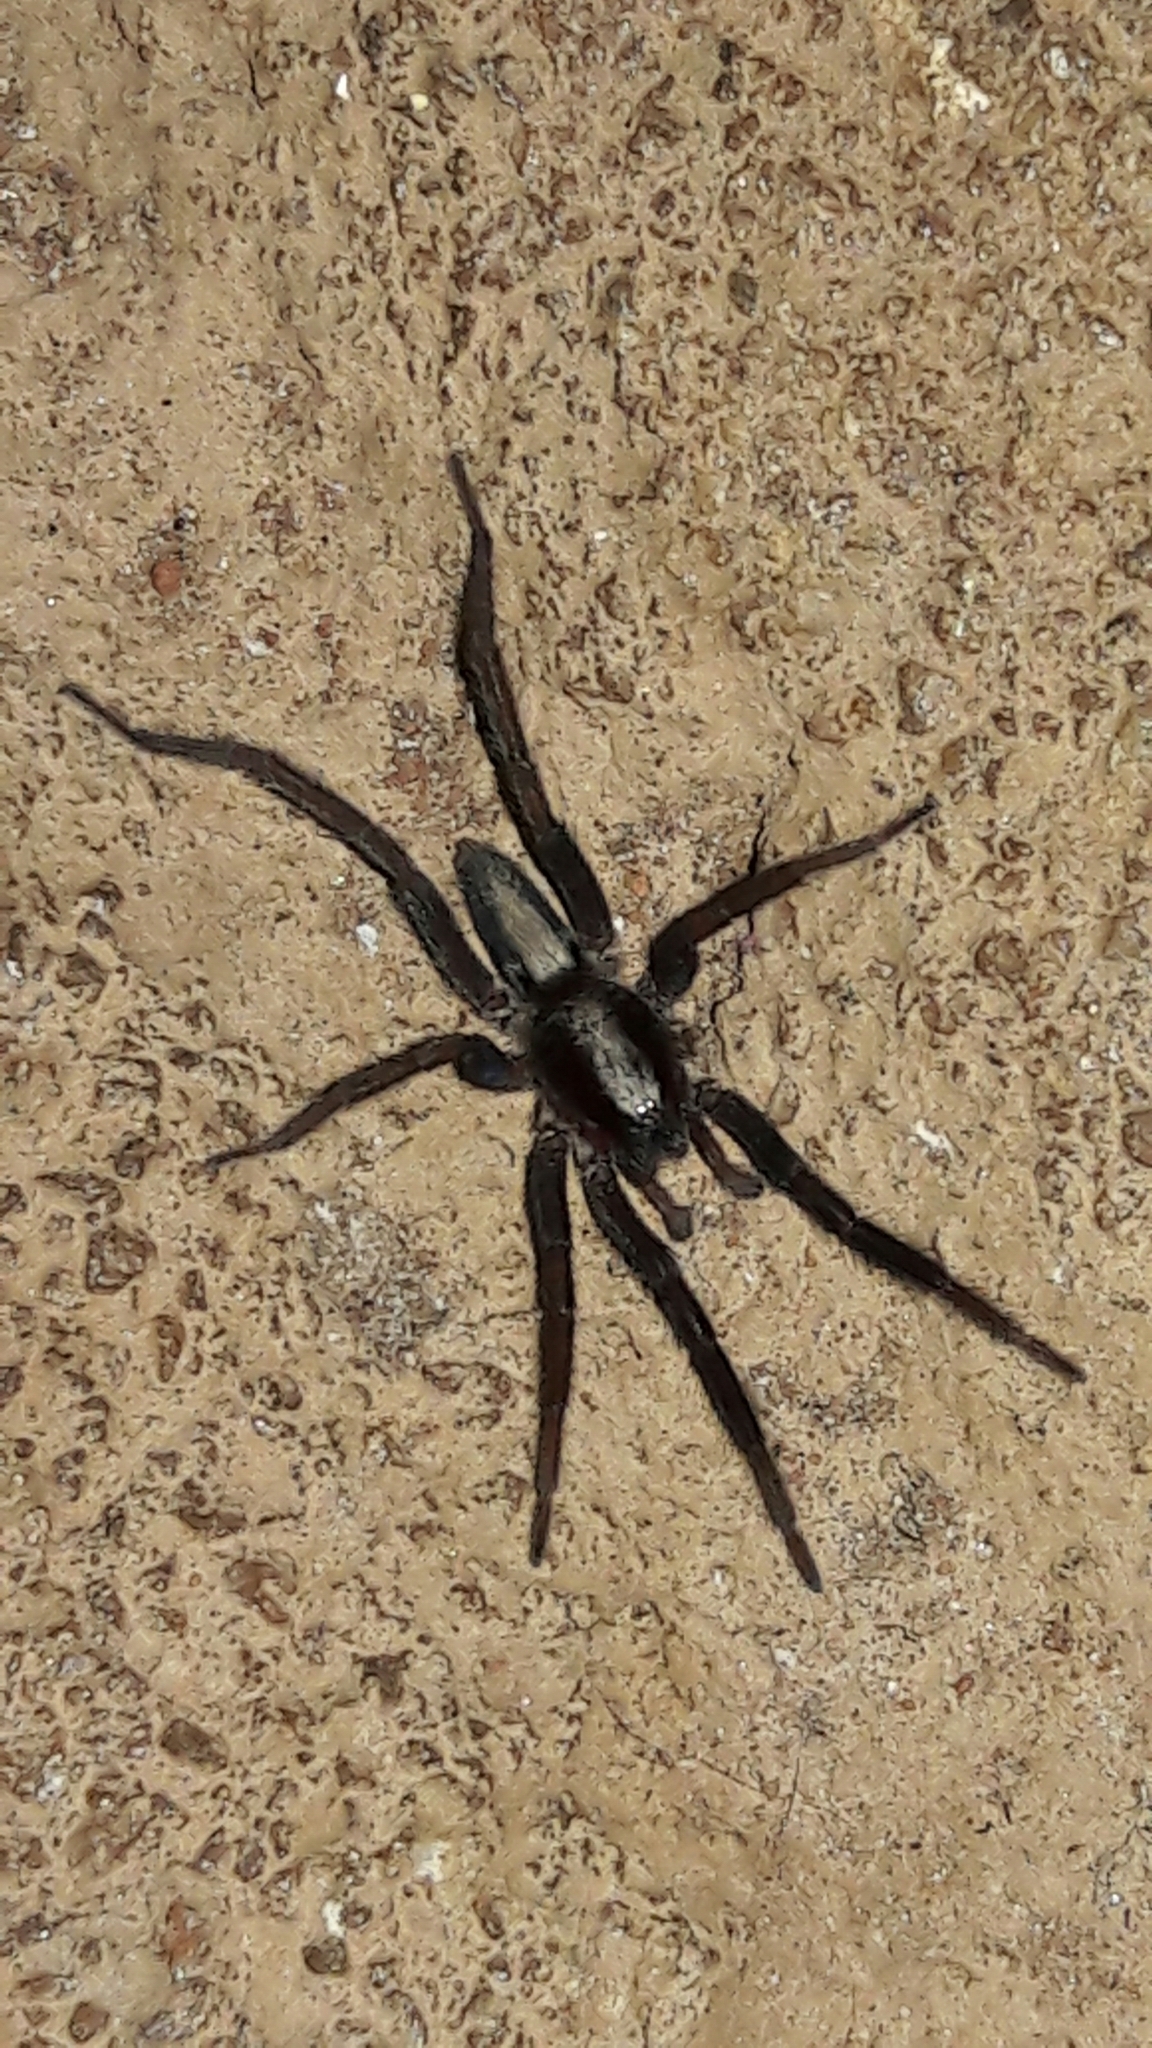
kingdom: Animalia
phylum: Arthropoda
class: Arachnida
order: Araneae
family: Miturgidae
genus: Teminius
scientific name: Teminius insularis
